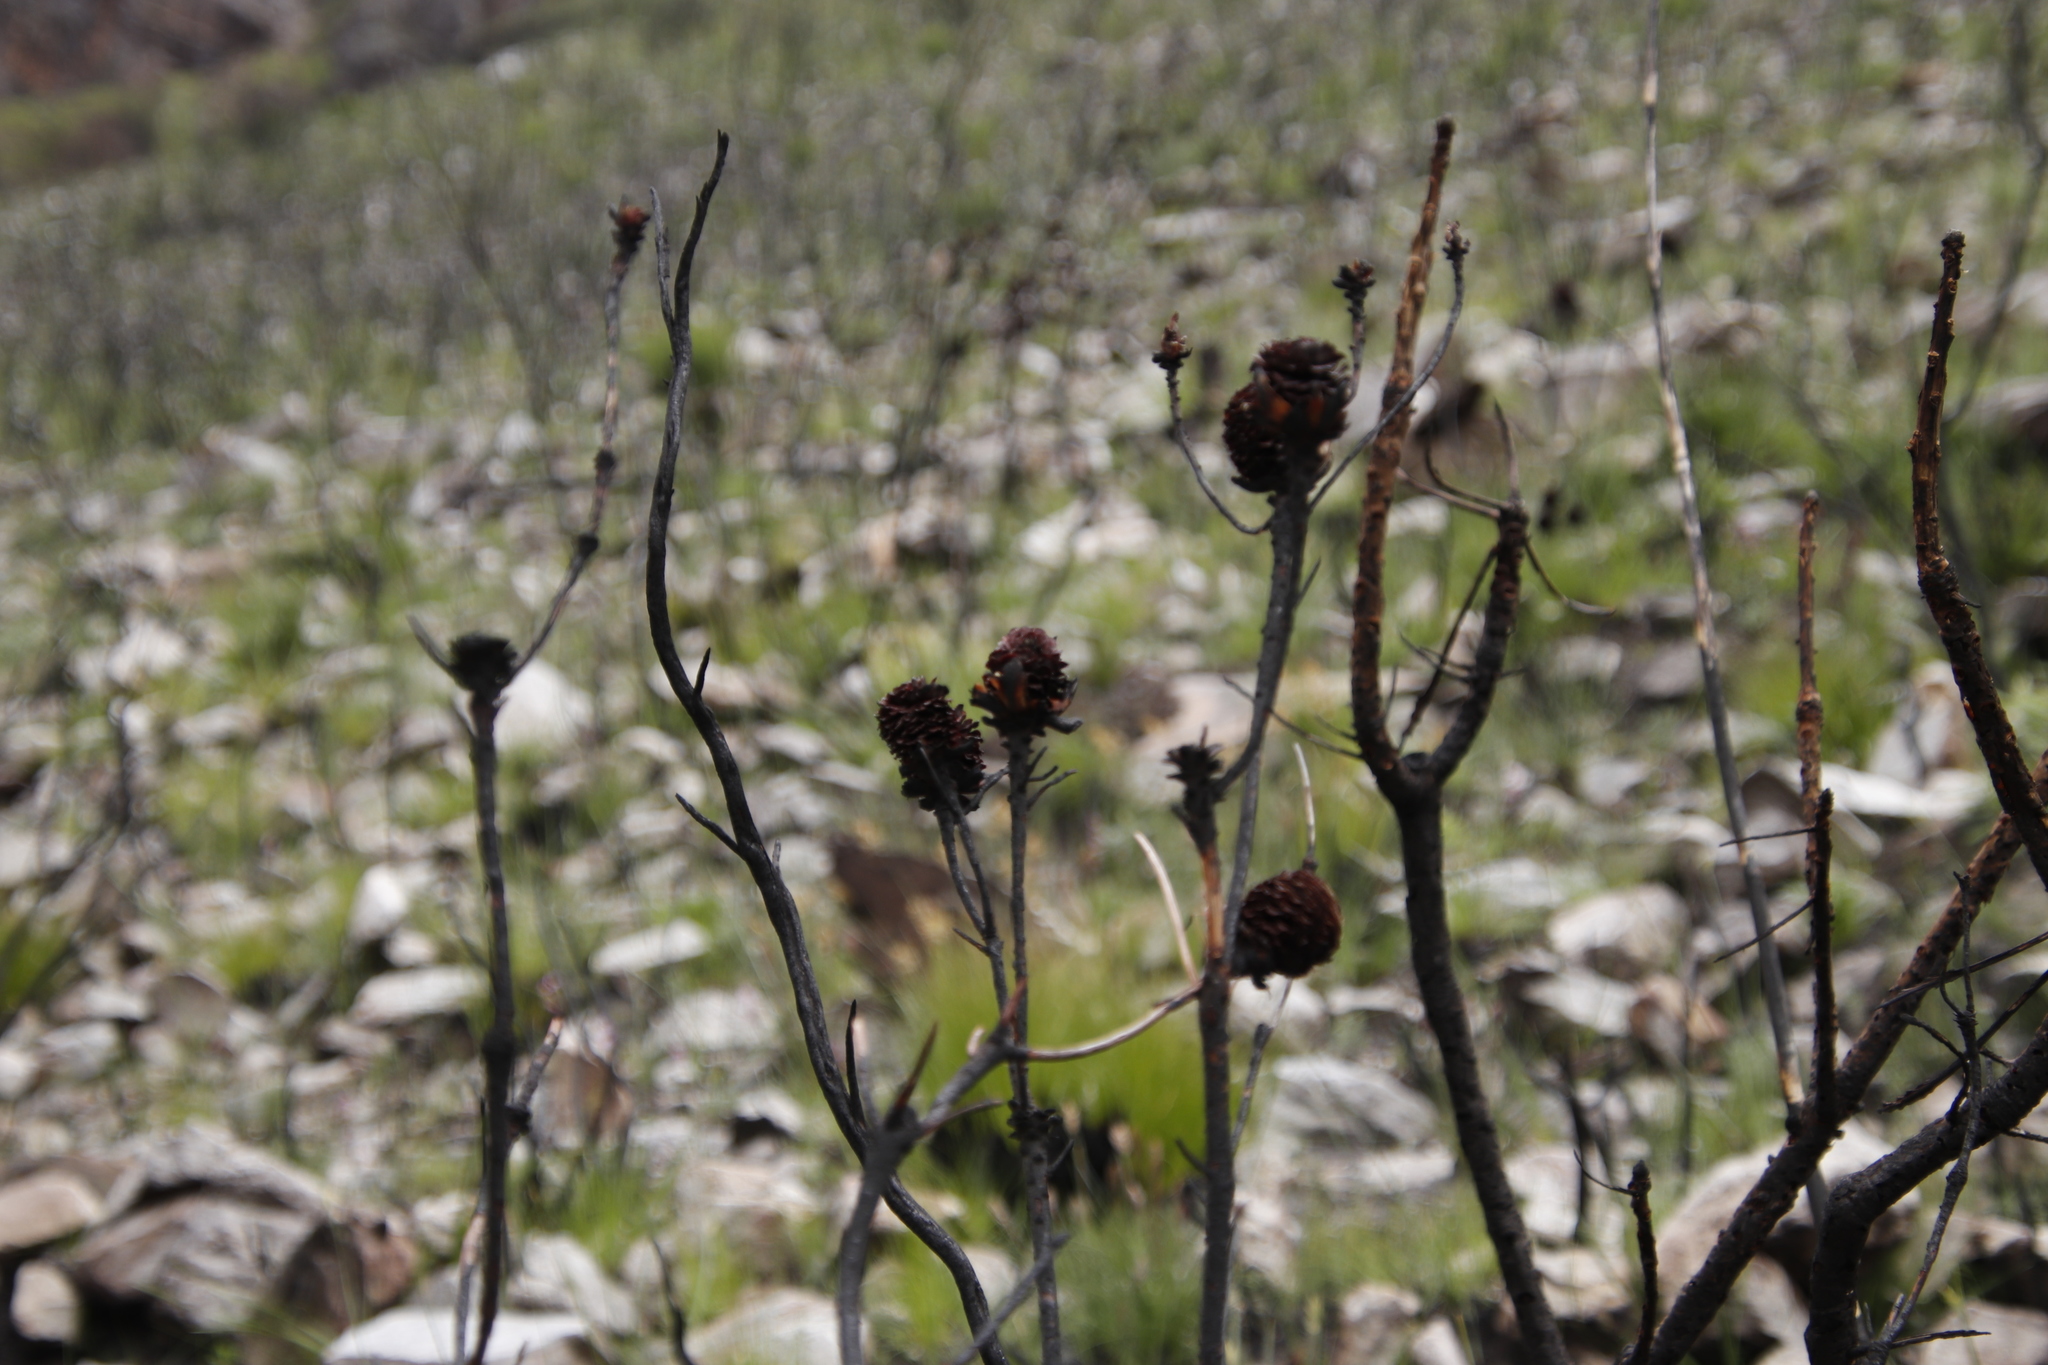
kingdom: Plantae
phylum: Tracheophyta
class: Magnoliopsida
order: Proteales
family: Proteaceae
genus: Leucadendron
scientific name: Leucadendron spissifolium
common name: Spear-leaf conebush
